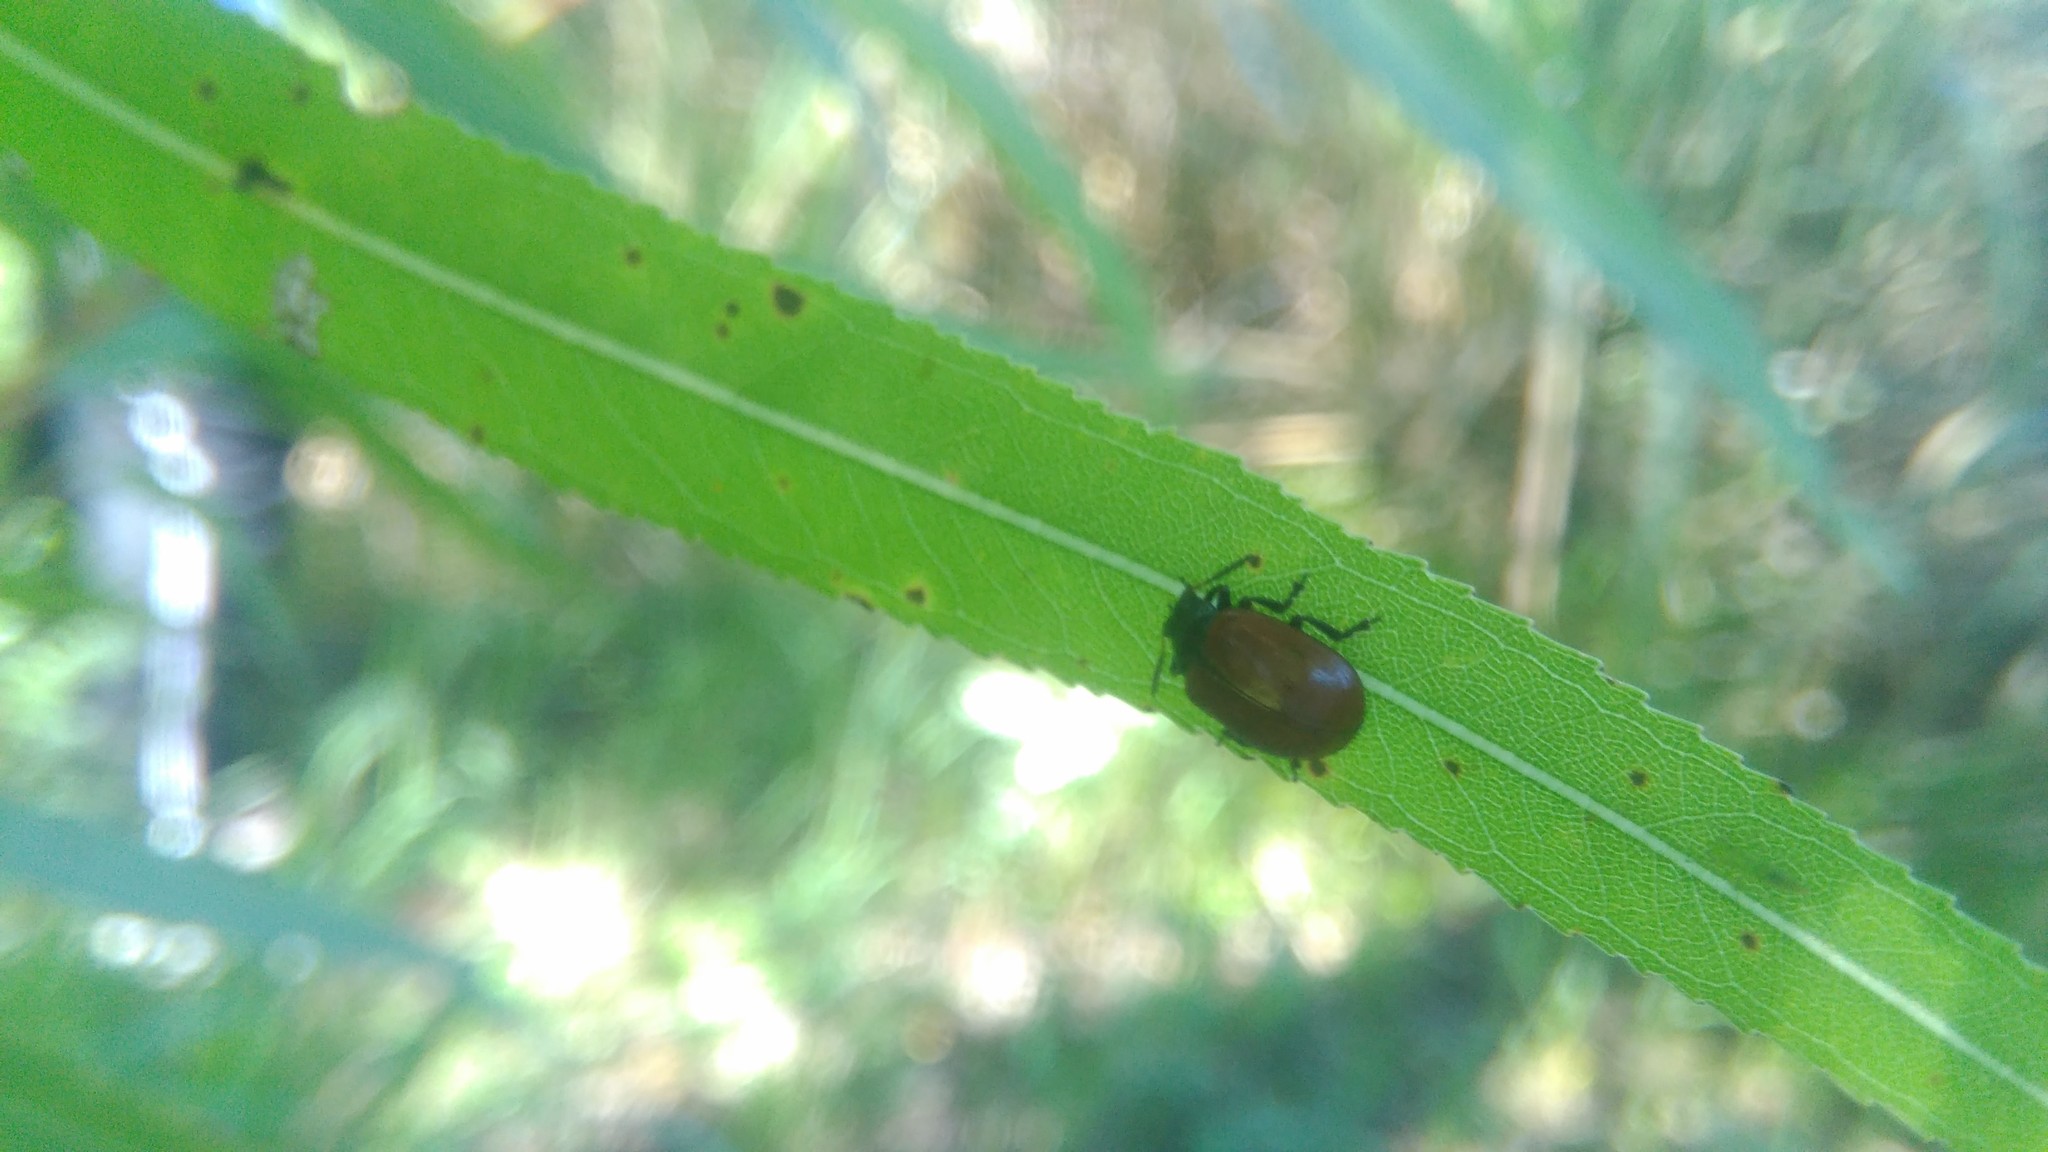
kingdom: Animalia
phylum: Arthropoda
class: Insecta
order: Coleoptera
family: Chrysomelidae
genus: Plagiodera
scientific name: Plagiodera
